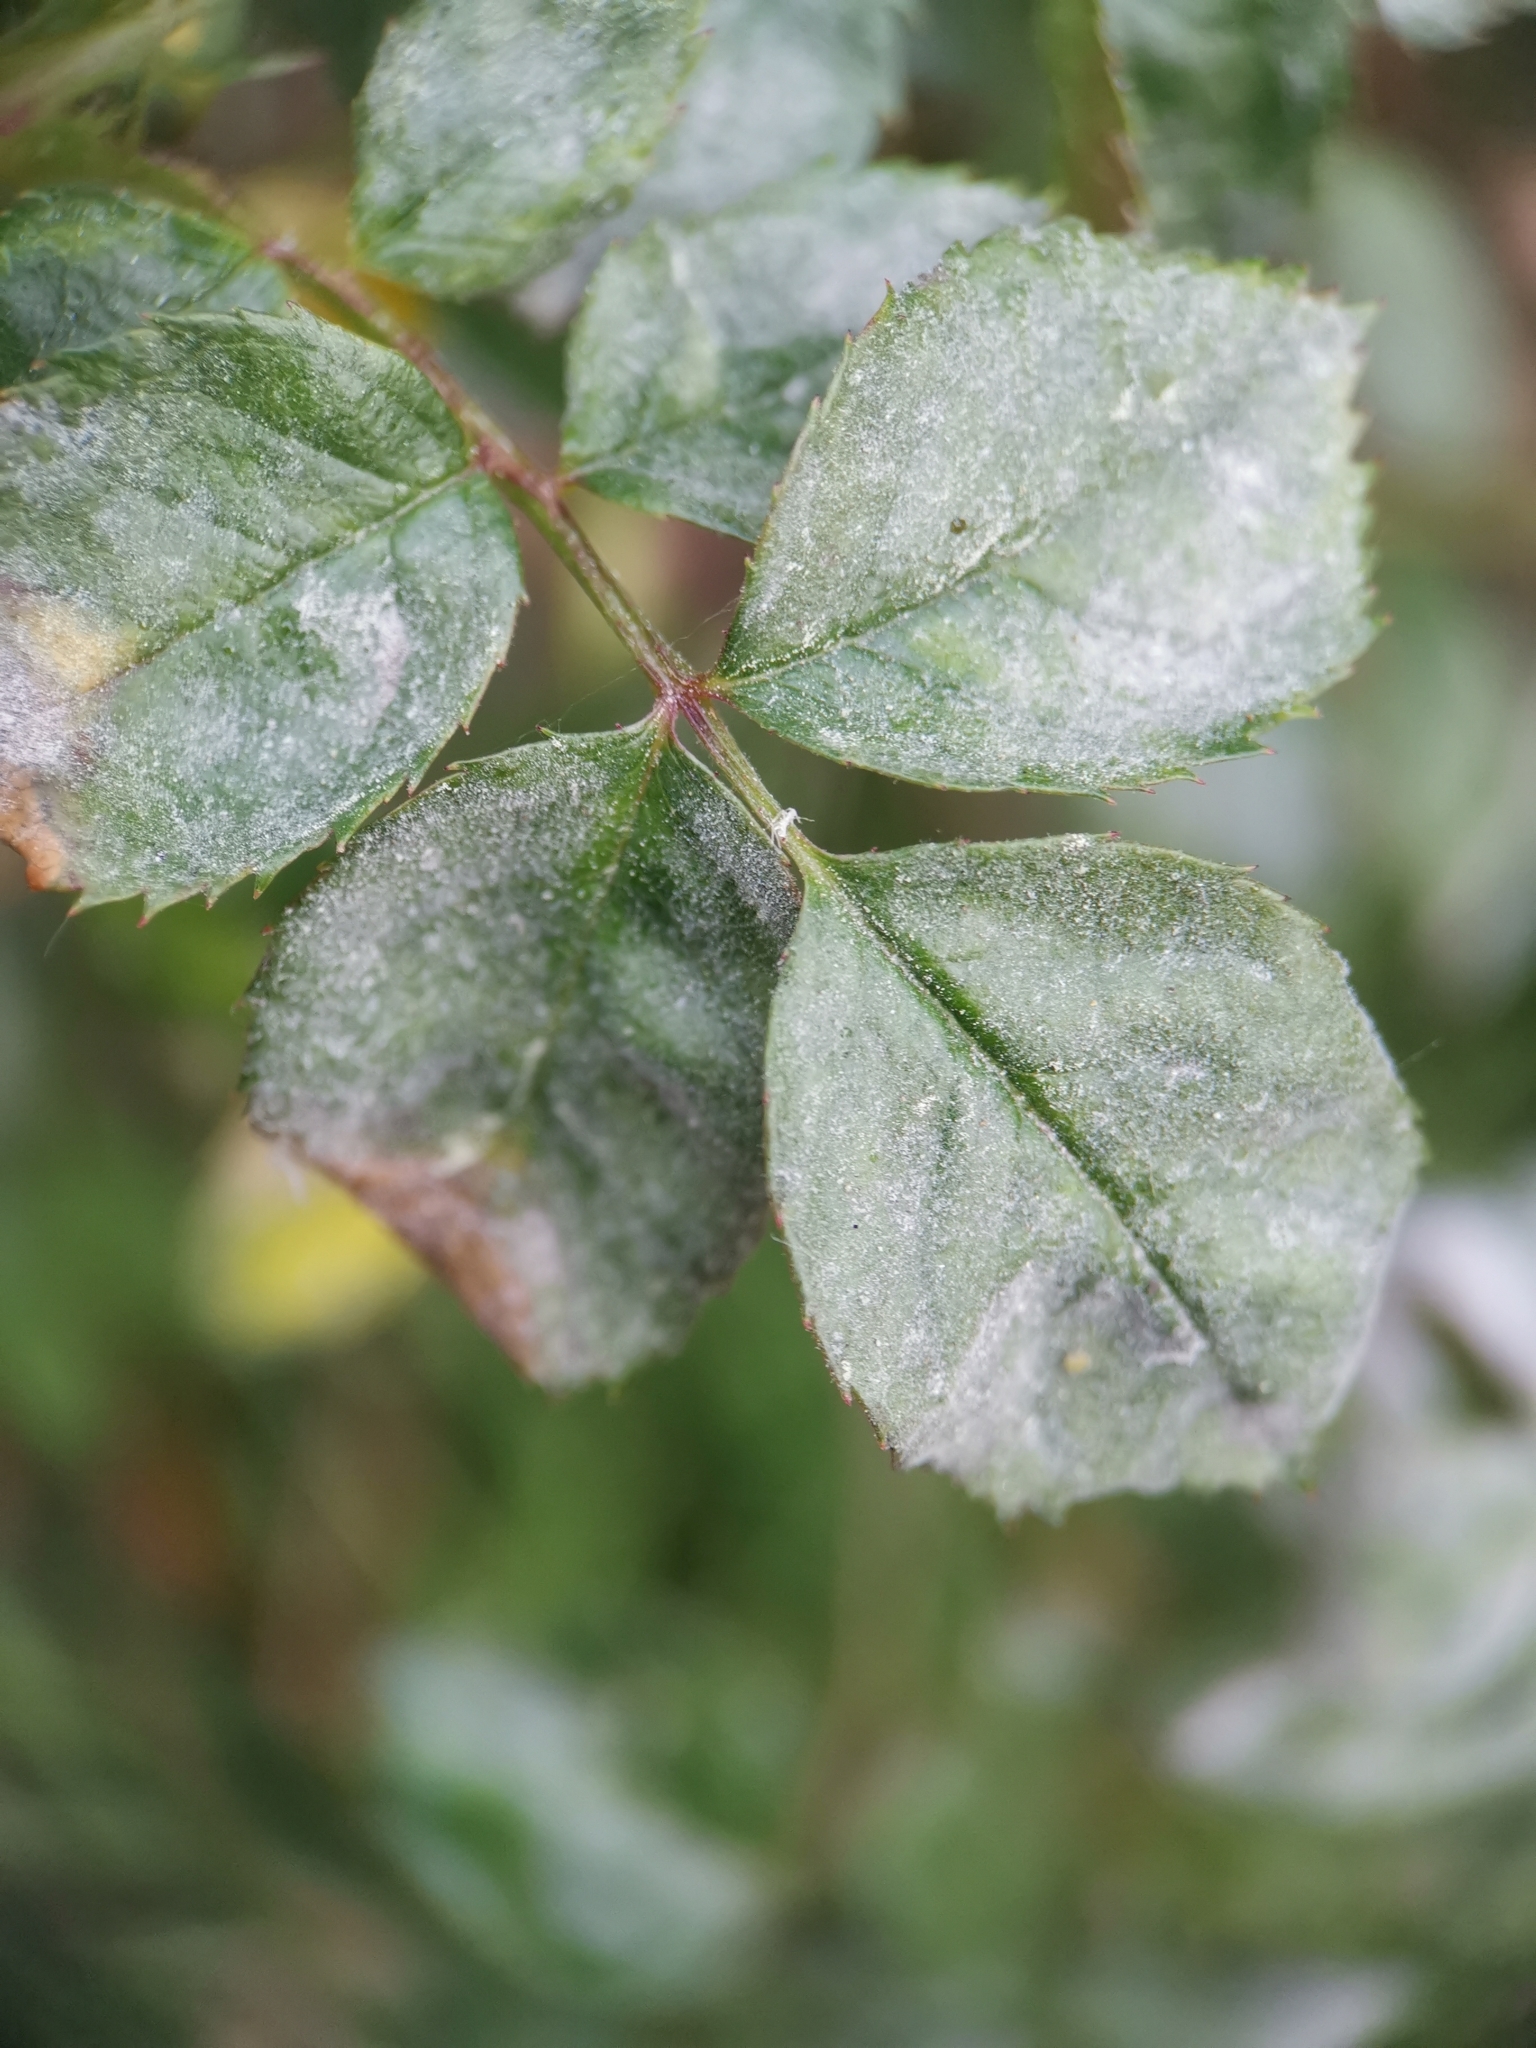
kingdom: Fungi
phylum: Ascomycota
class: Leotiomycetes
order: Helotiales
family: Erysiphaceae
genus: Podosphaera
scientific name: Podosphaera pannosa
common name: Rose mildew
